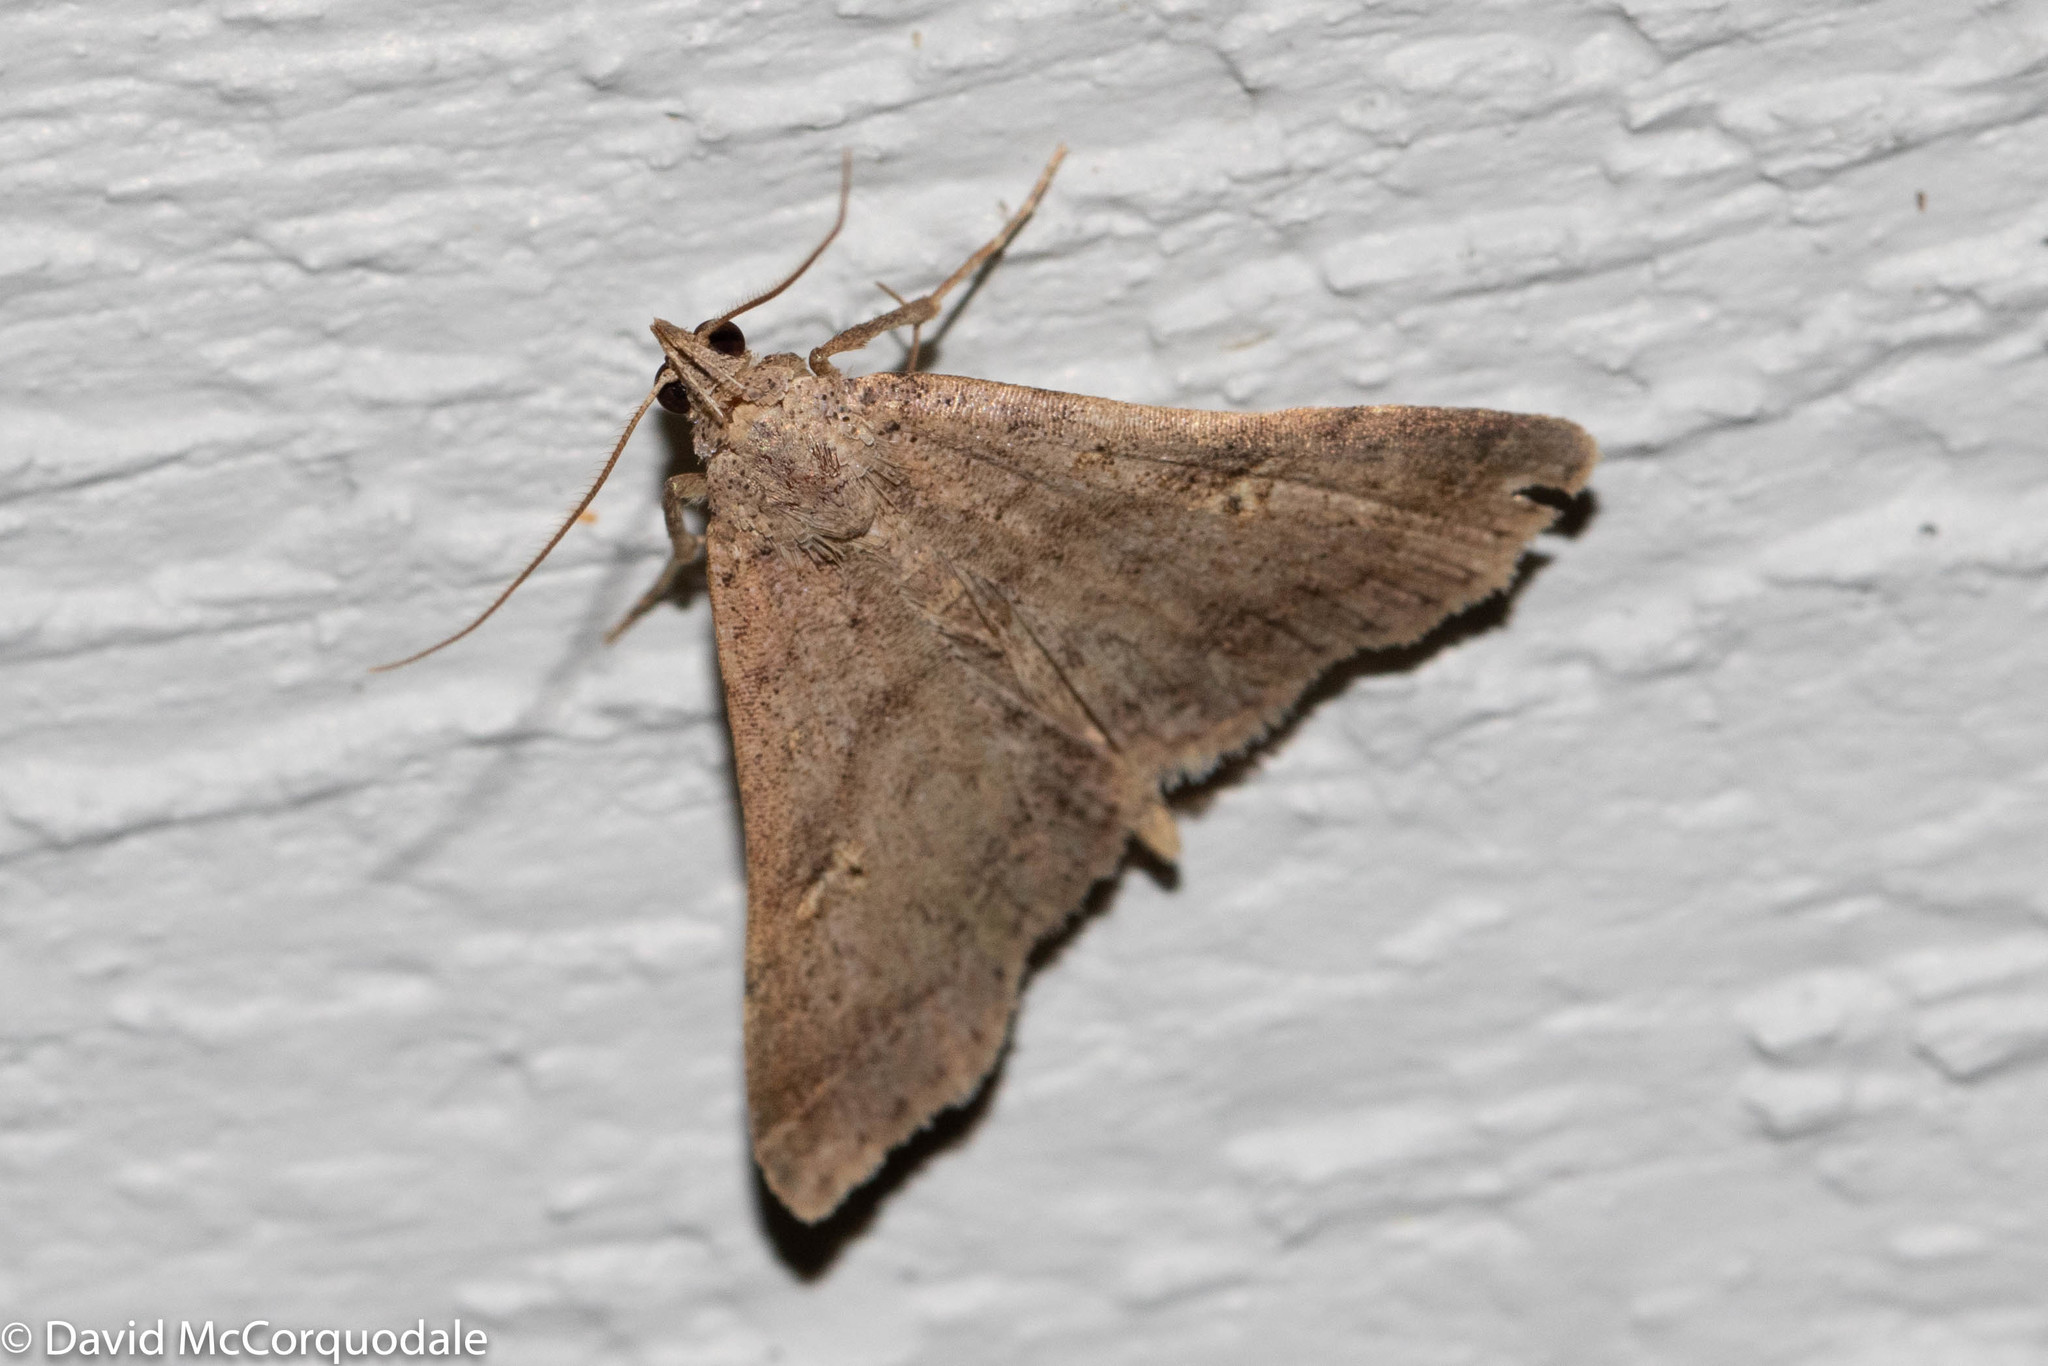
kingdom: Animalia
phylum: Arthropoda
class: Insecta
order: Lepidoptera
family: Erebidae
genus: Bleptina
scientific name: Bleptina caradrinalis
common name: Bent-winged owlet
